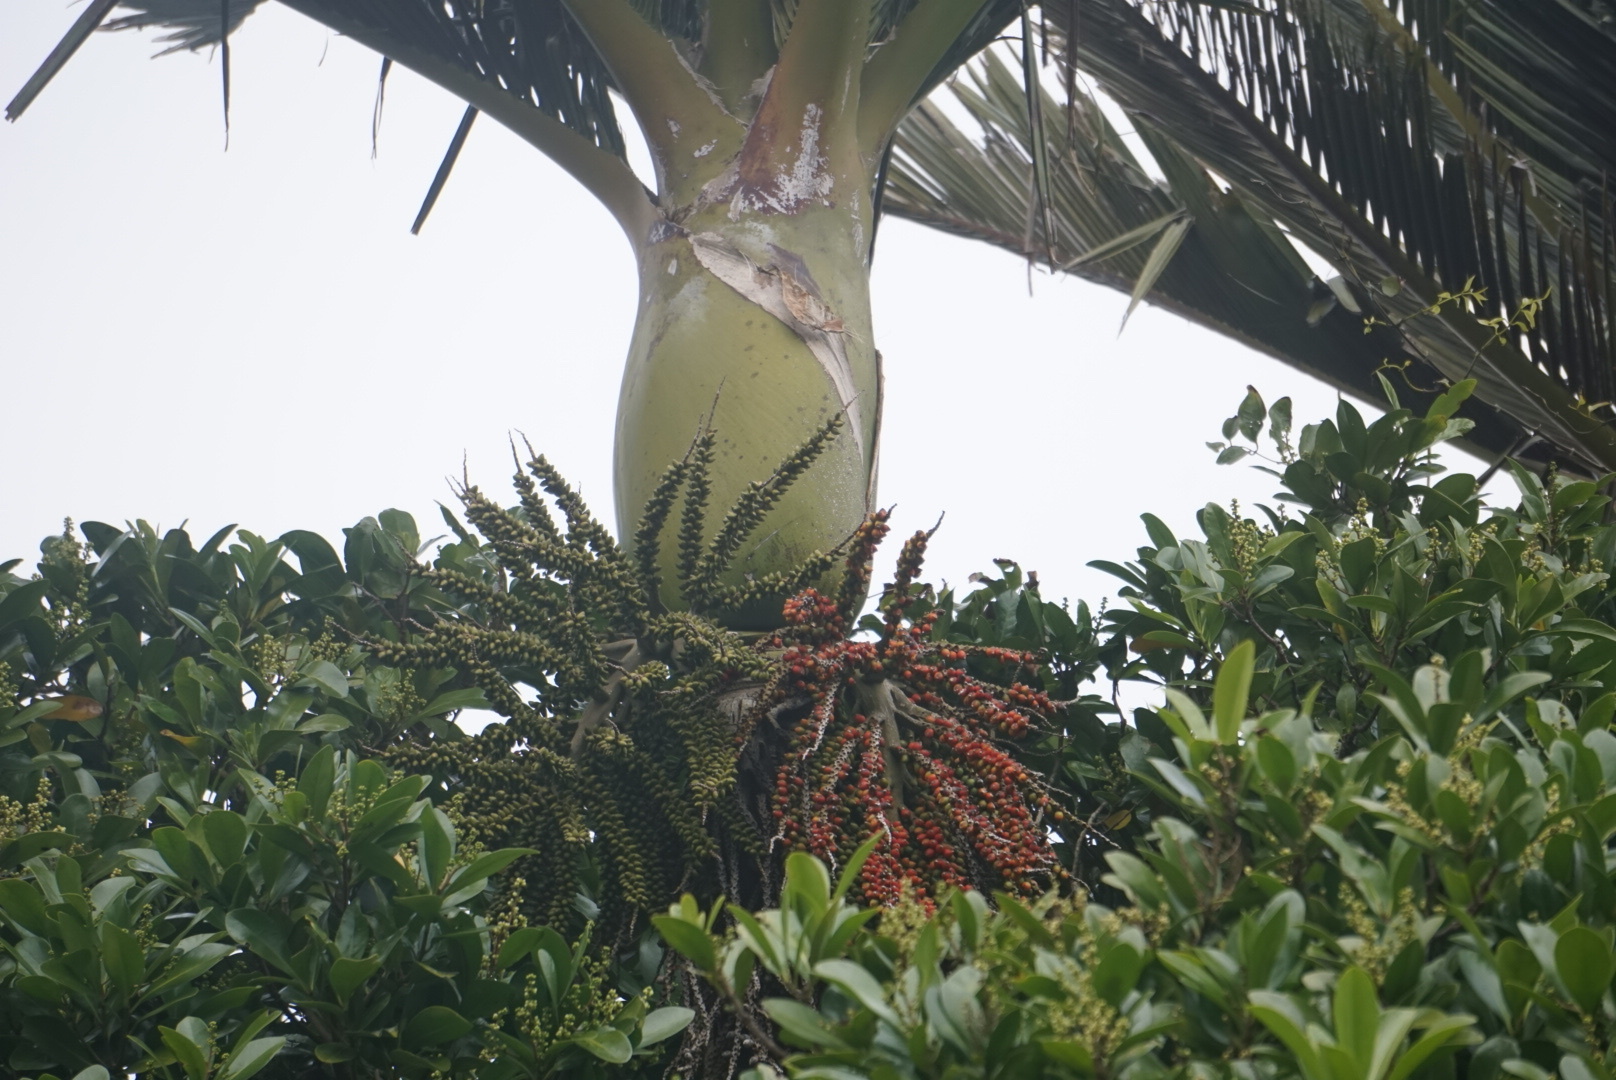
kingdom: Plantae
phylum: Tracheophyta
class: Liliopsida
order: Arecales
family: Arecaceae
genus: Rhopalostylis
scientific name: Rhopalostylis sapida
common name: Feather-duster palm
